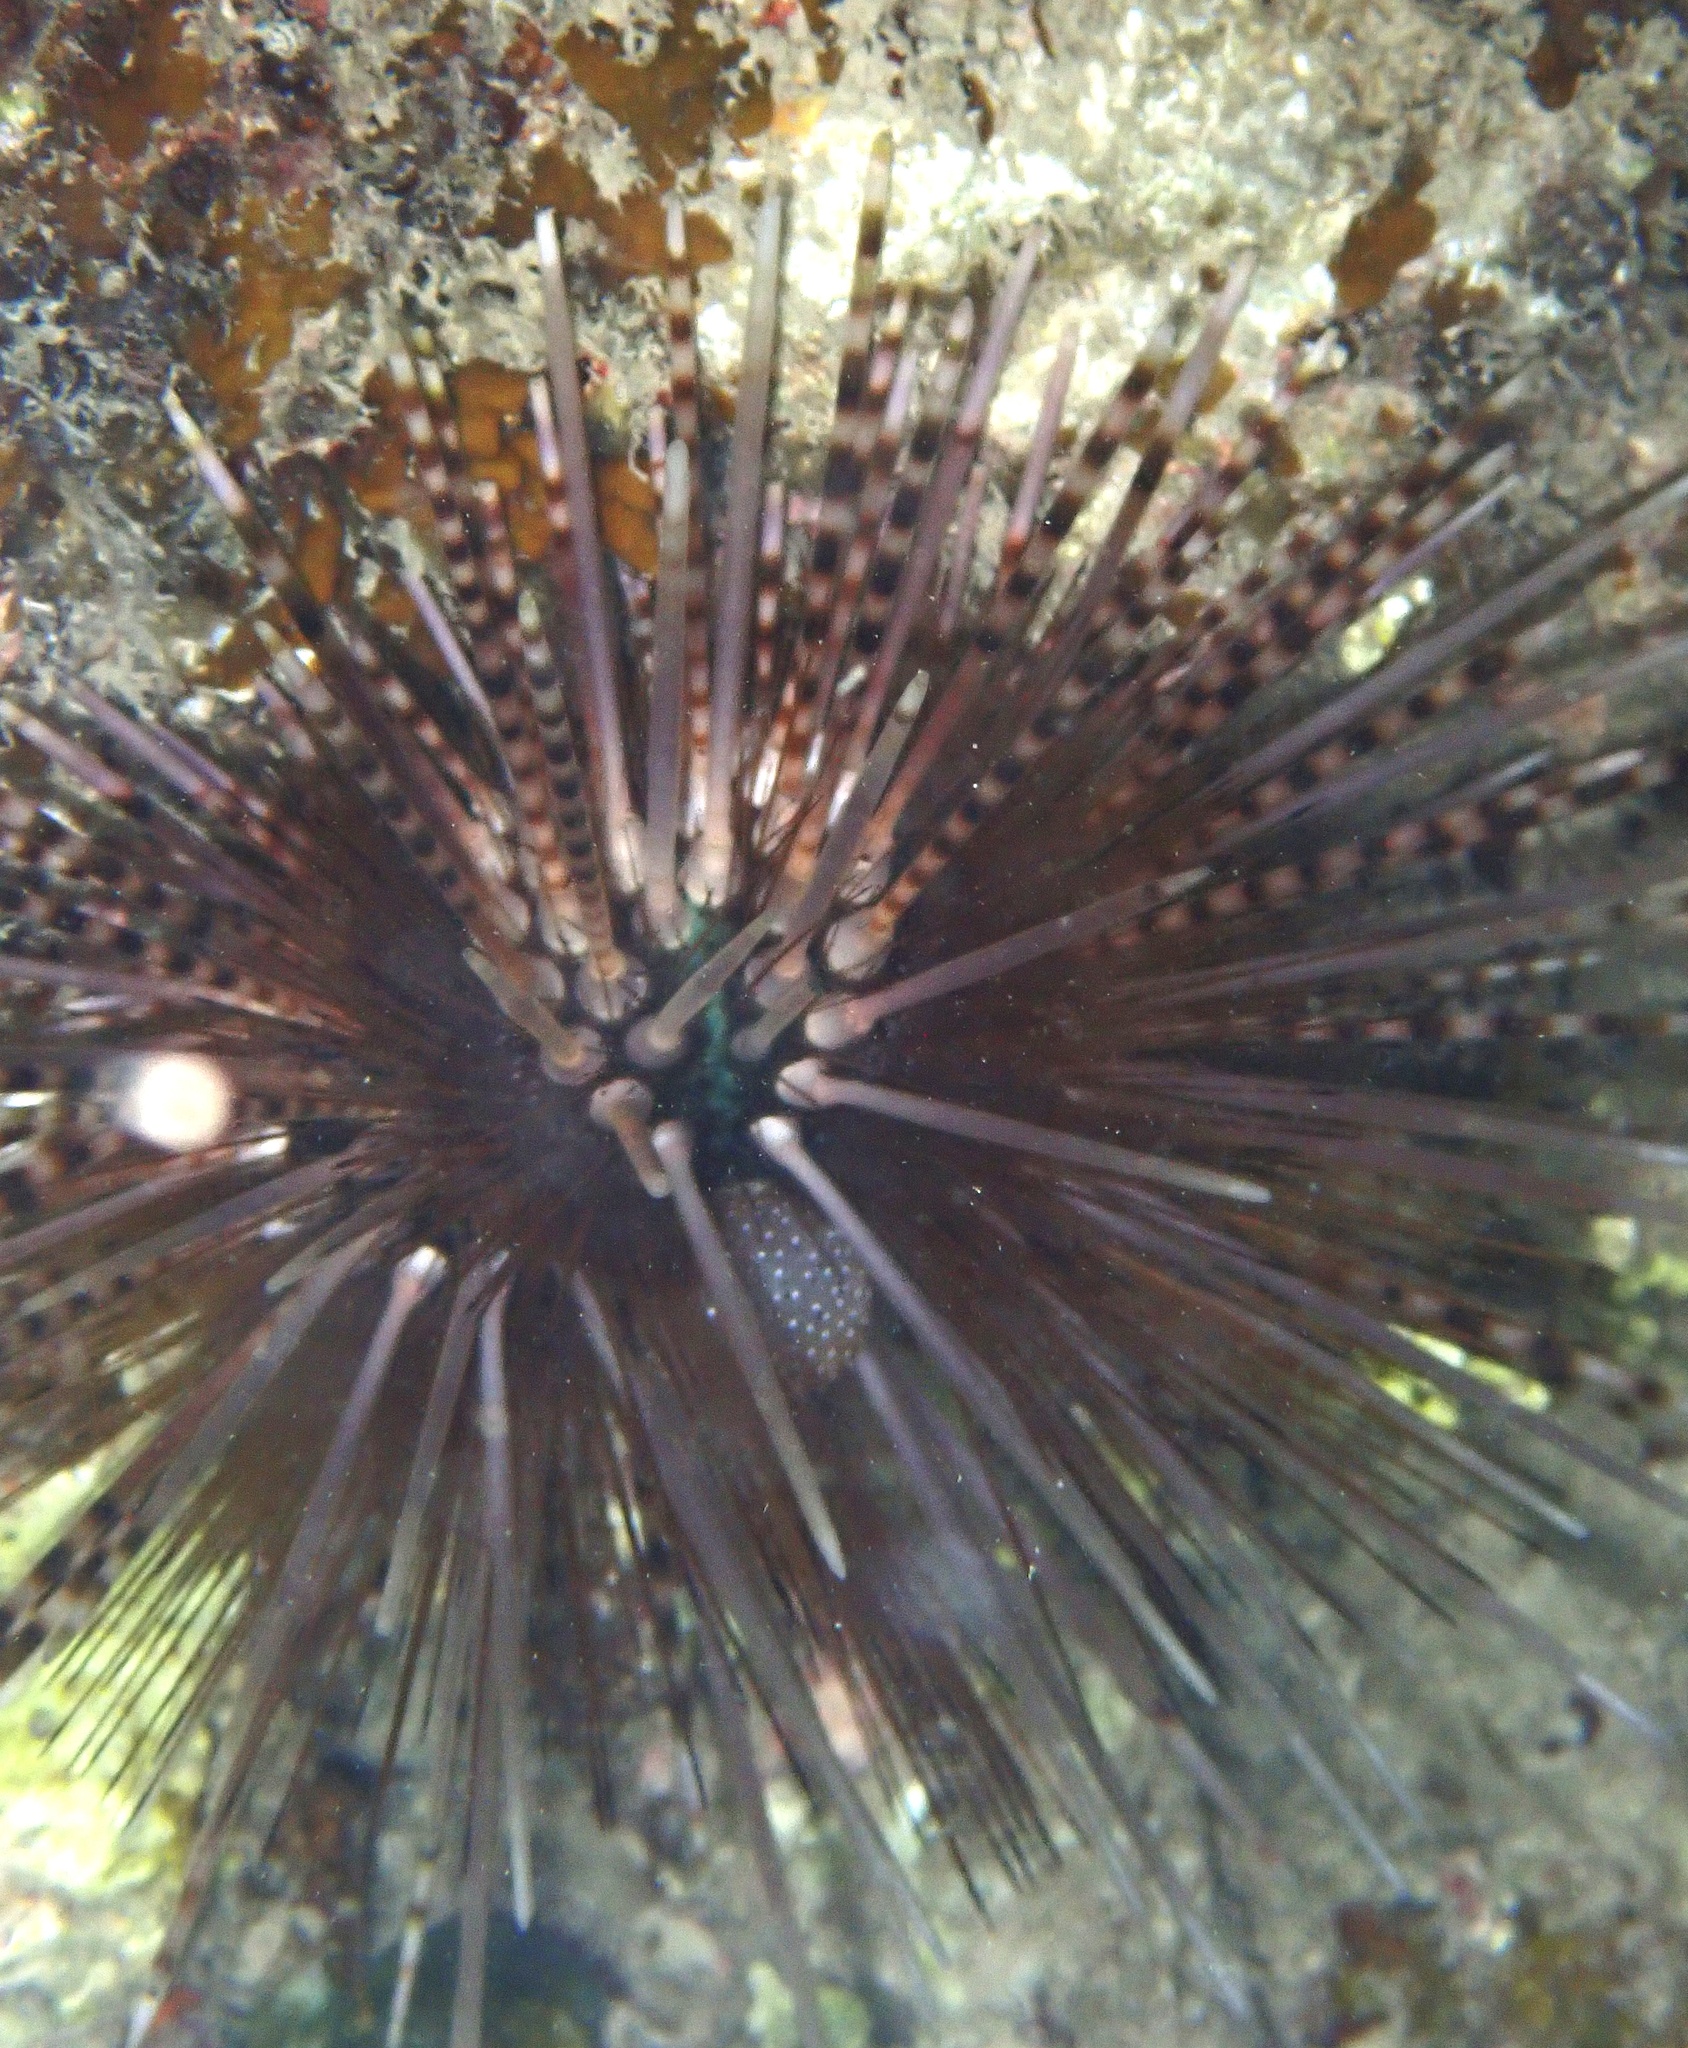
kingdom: Animalia
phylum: Echinodermata
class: Echinoidea
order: Diadematoida
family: Diadematidae
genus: Echinothrix
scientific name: Echinothrix calamaris
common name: Banded sea urchin
